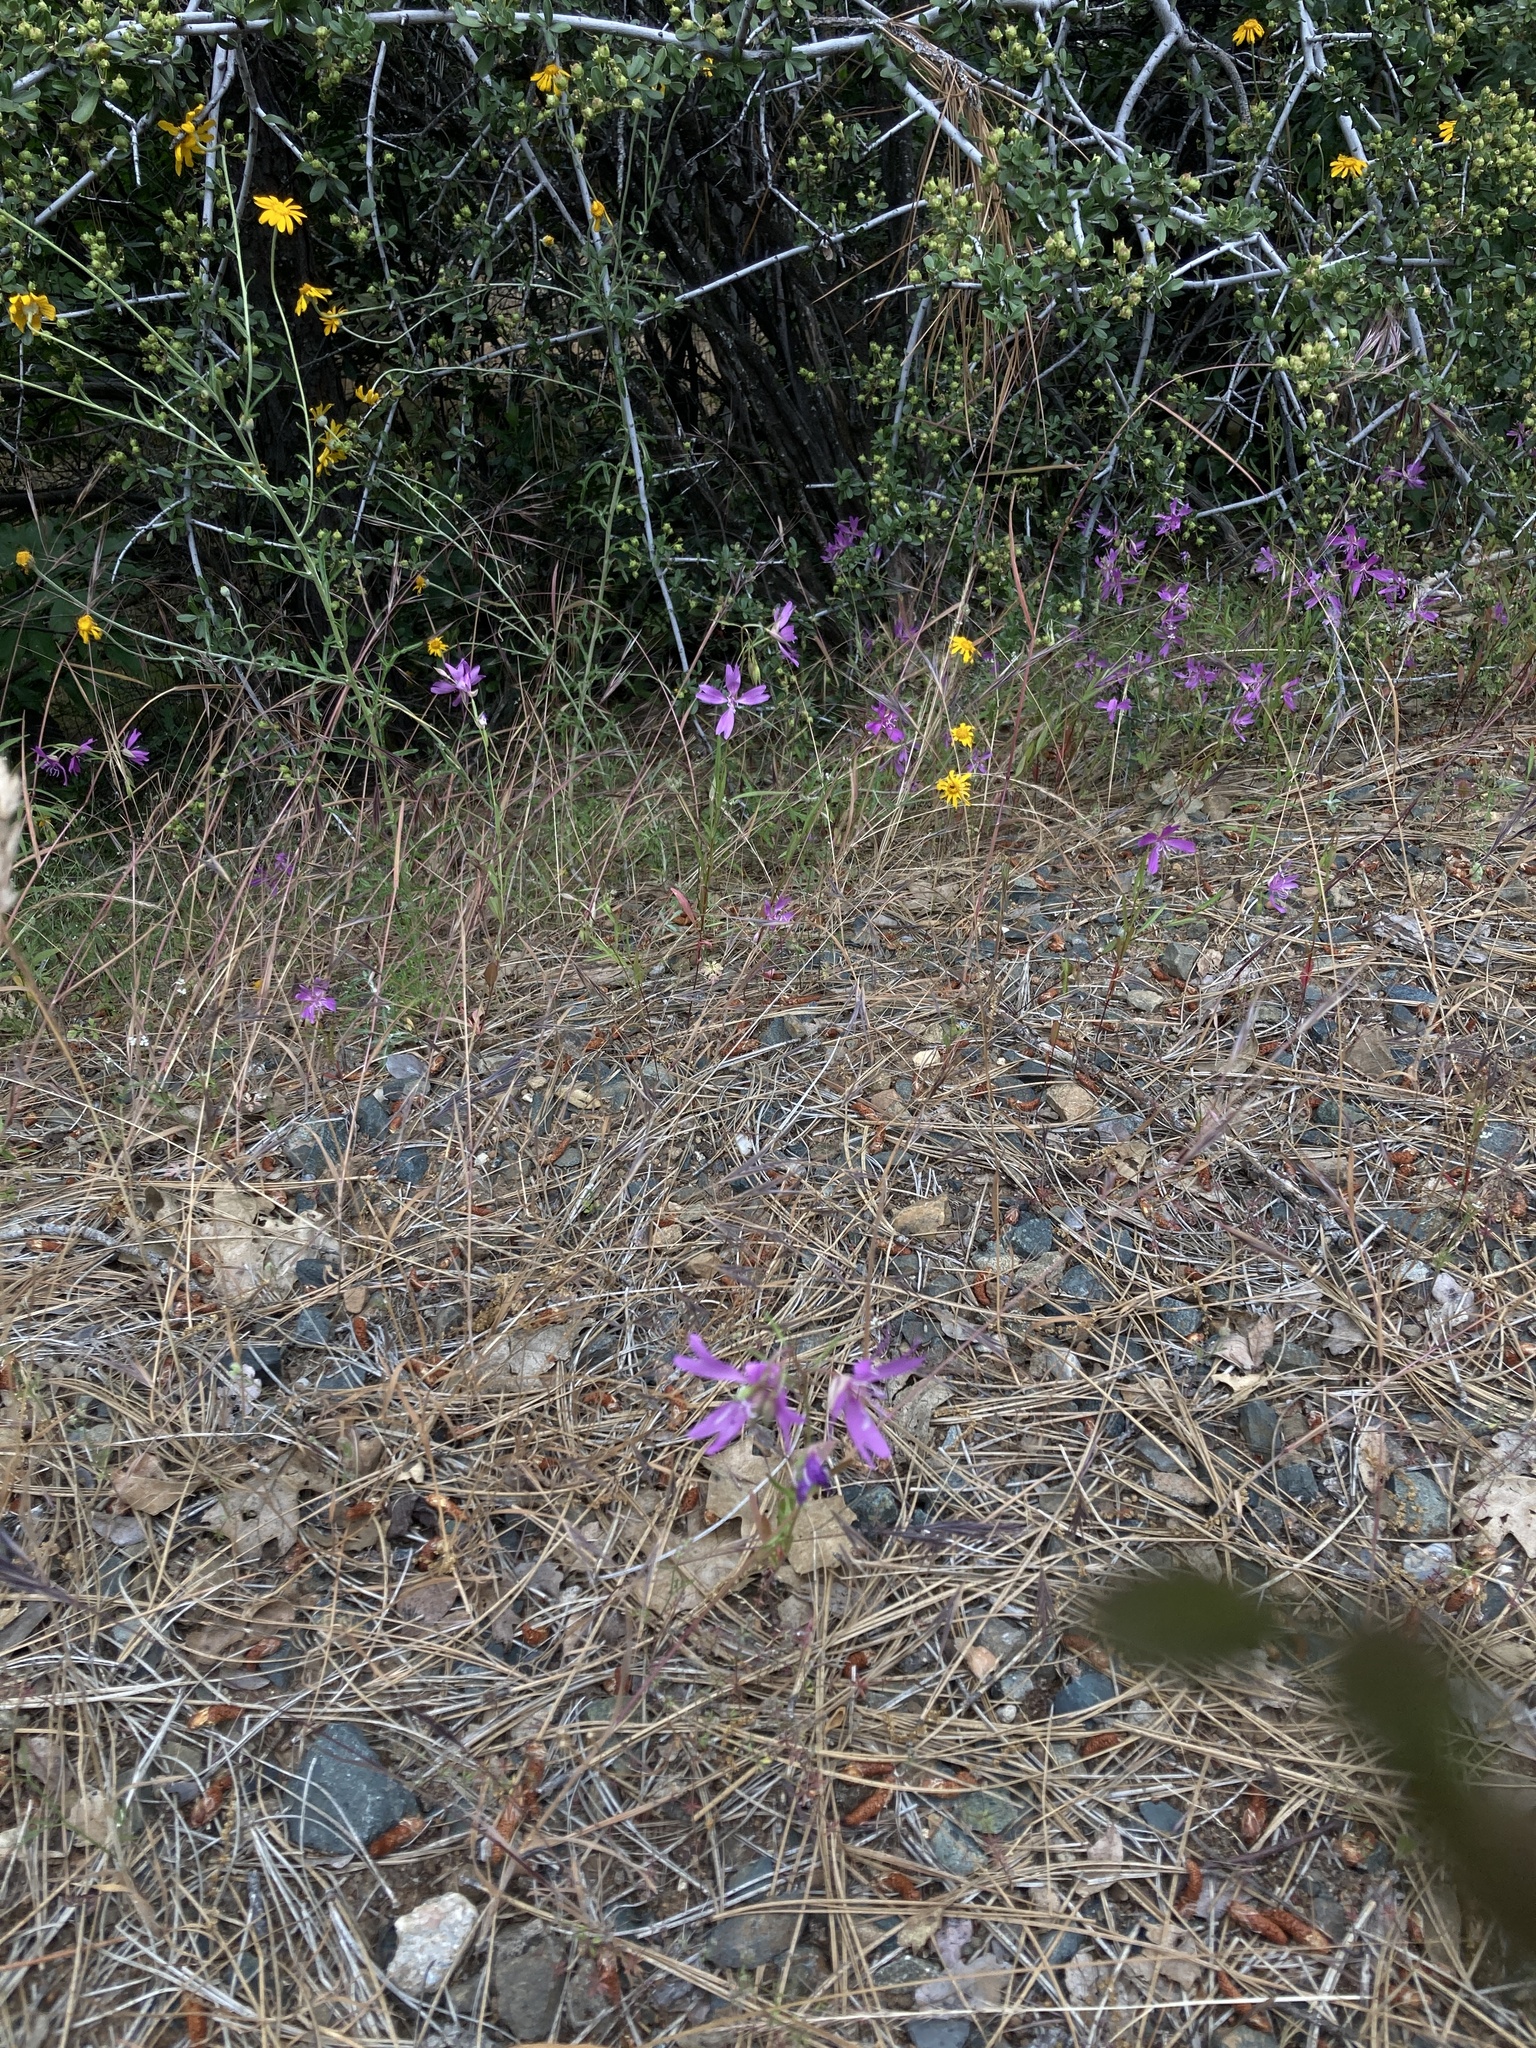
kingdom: Plantae
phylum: Tracheophyta
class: Magnoliopsida
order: Myrtales
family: Onagraceae
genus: Clarkia
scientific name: Clarkia biloba
